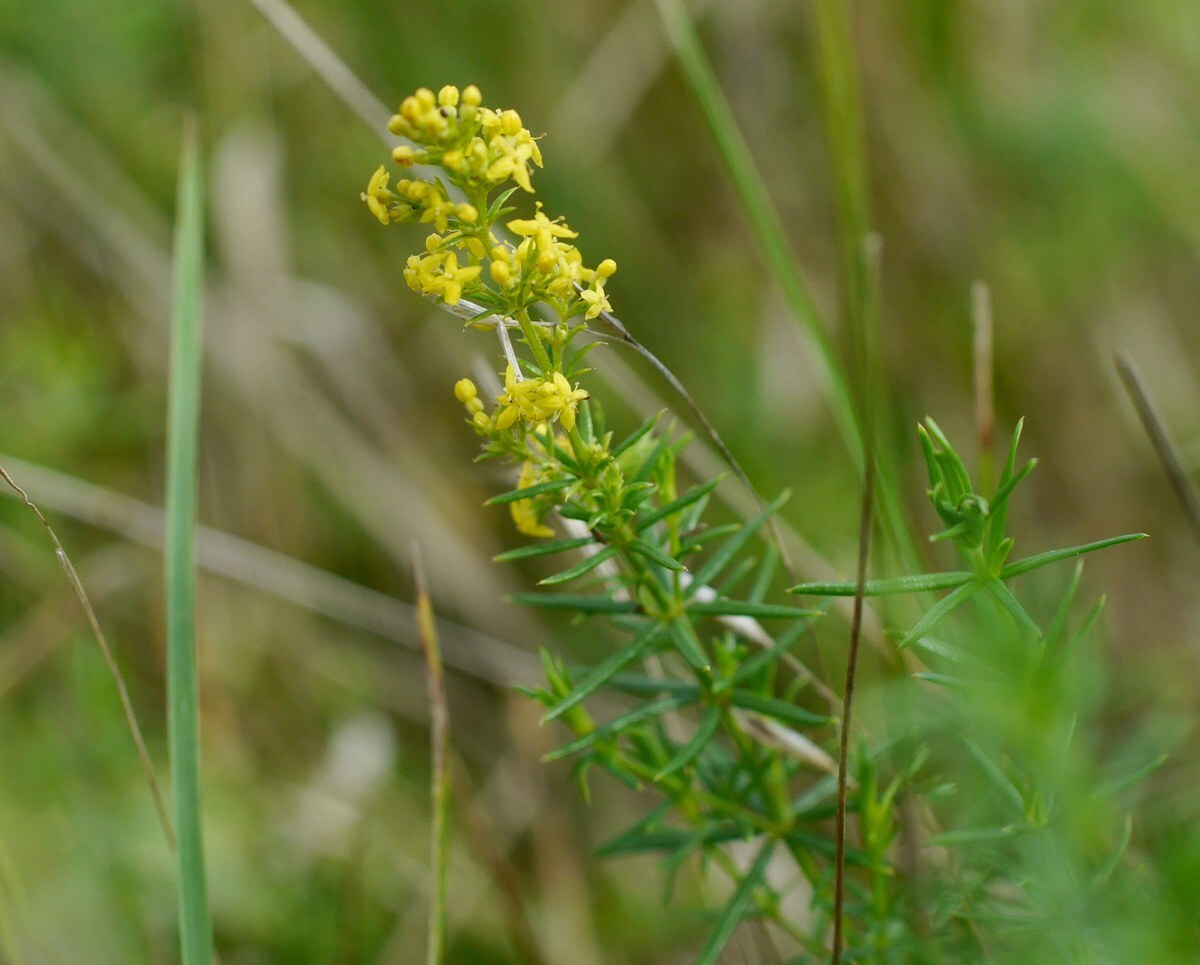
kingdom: Plantae
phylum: Tracheophyta
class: Magnoliopsida
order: Gentianales
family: Rubiaceae
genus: Galium
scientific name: Galium verum
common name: Lady's bedstraw
